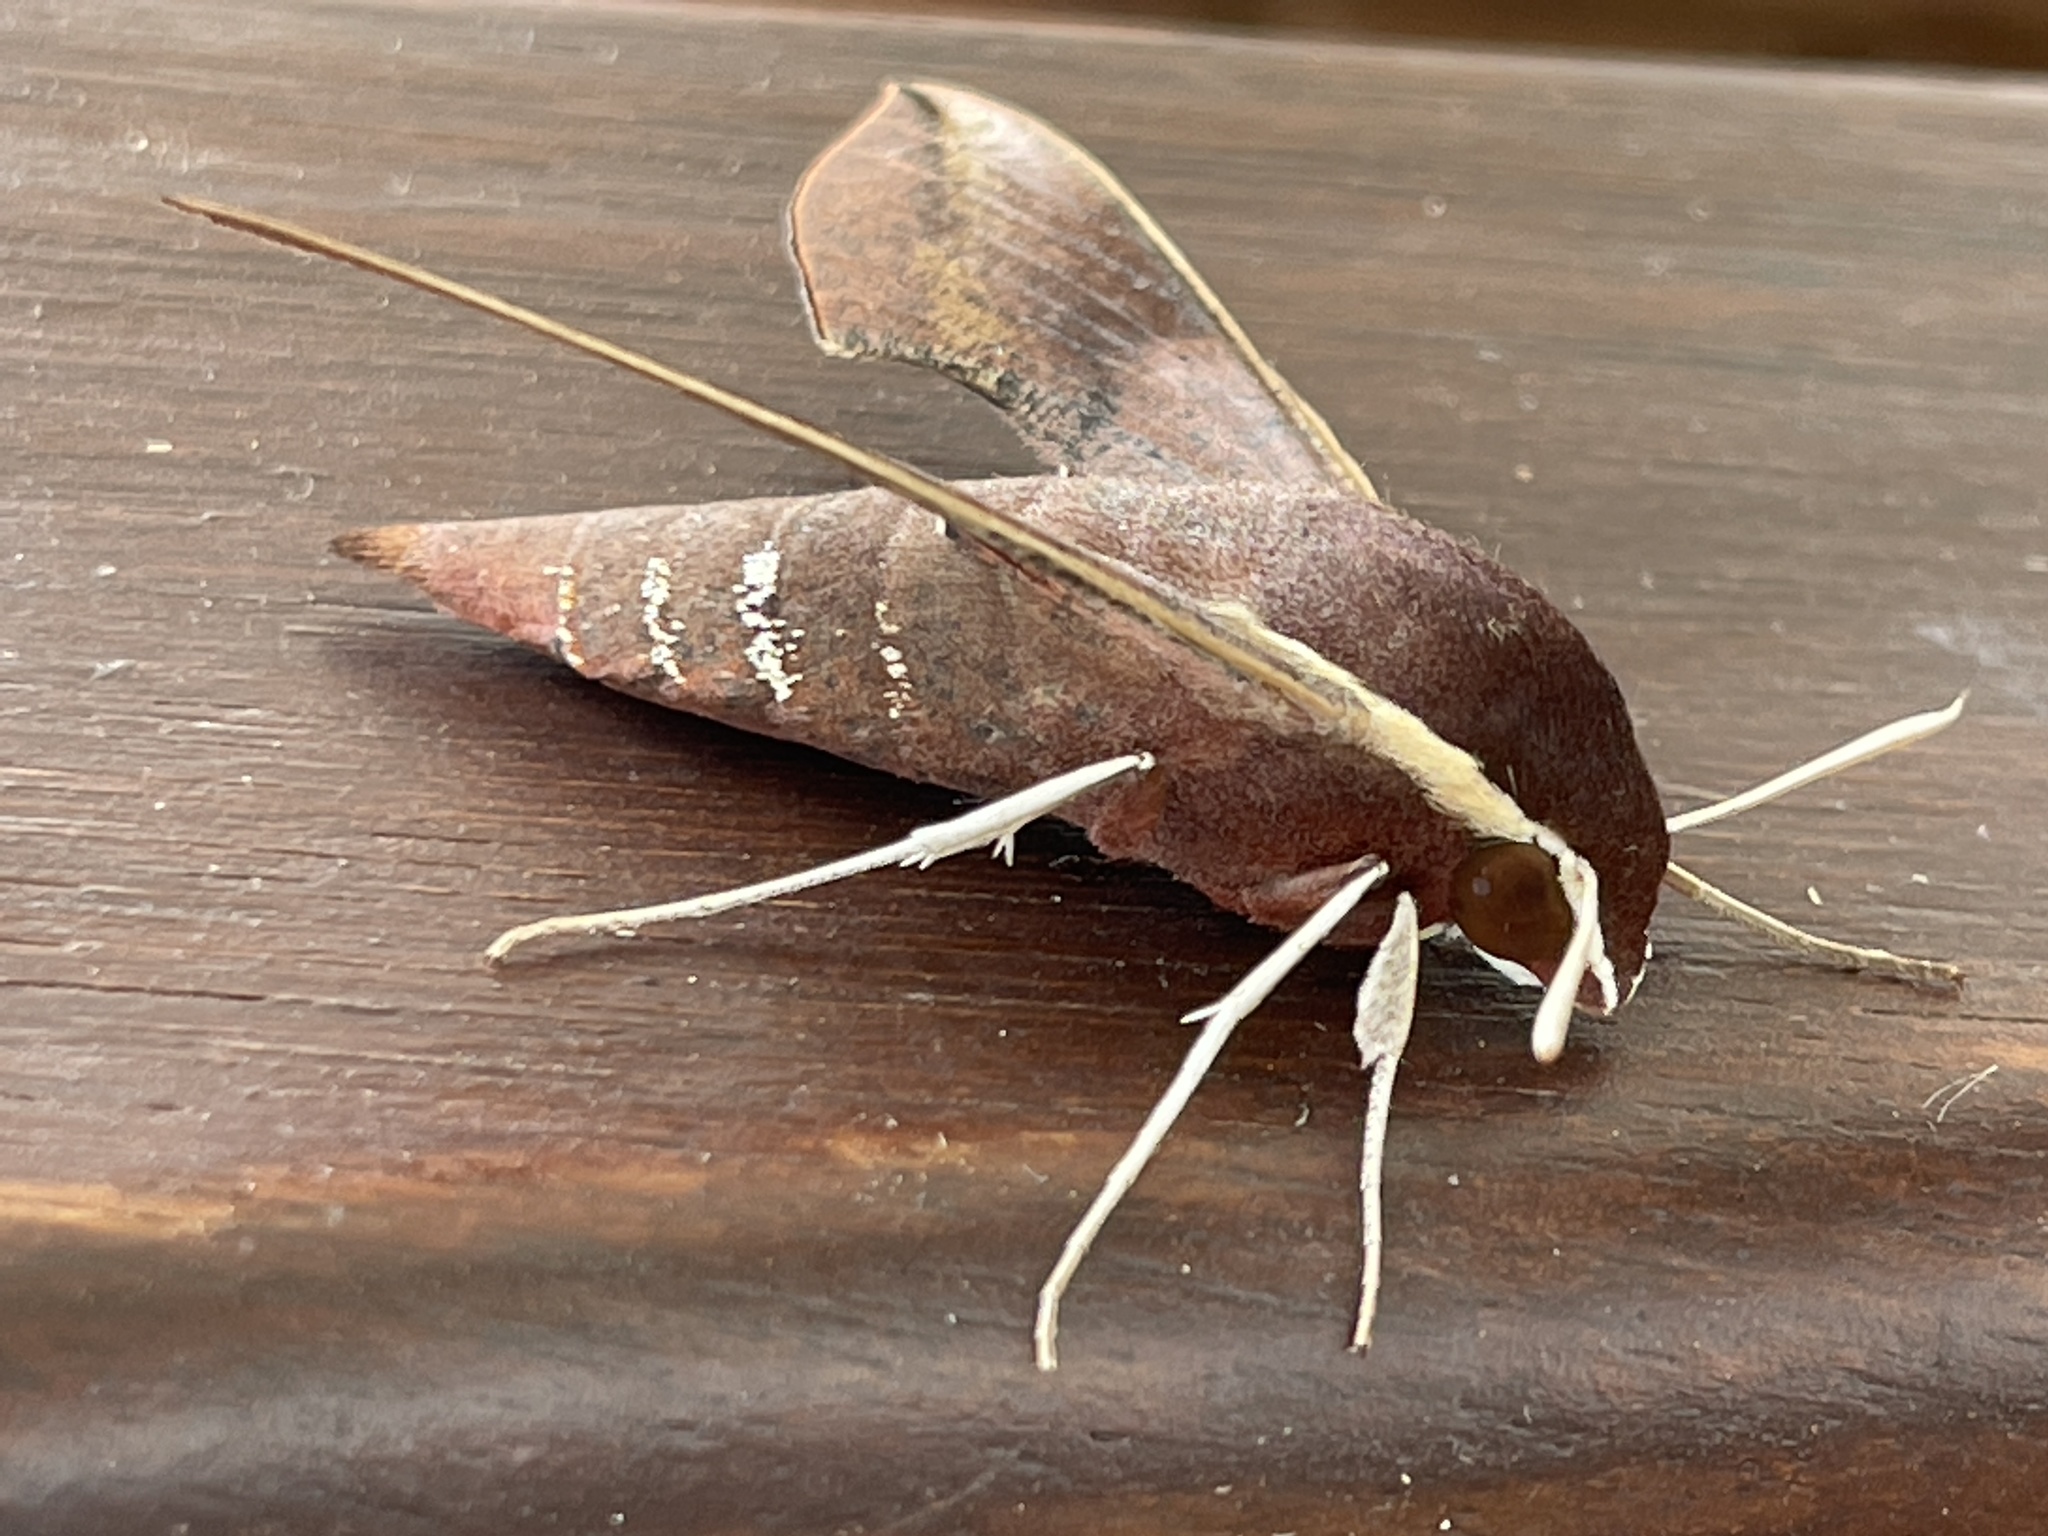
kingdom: Animalia
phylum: Arthropoda
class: Insecta
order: Lepidoptera
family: Sphingidae
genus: Hippotion
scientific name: Hippotion scrofa
